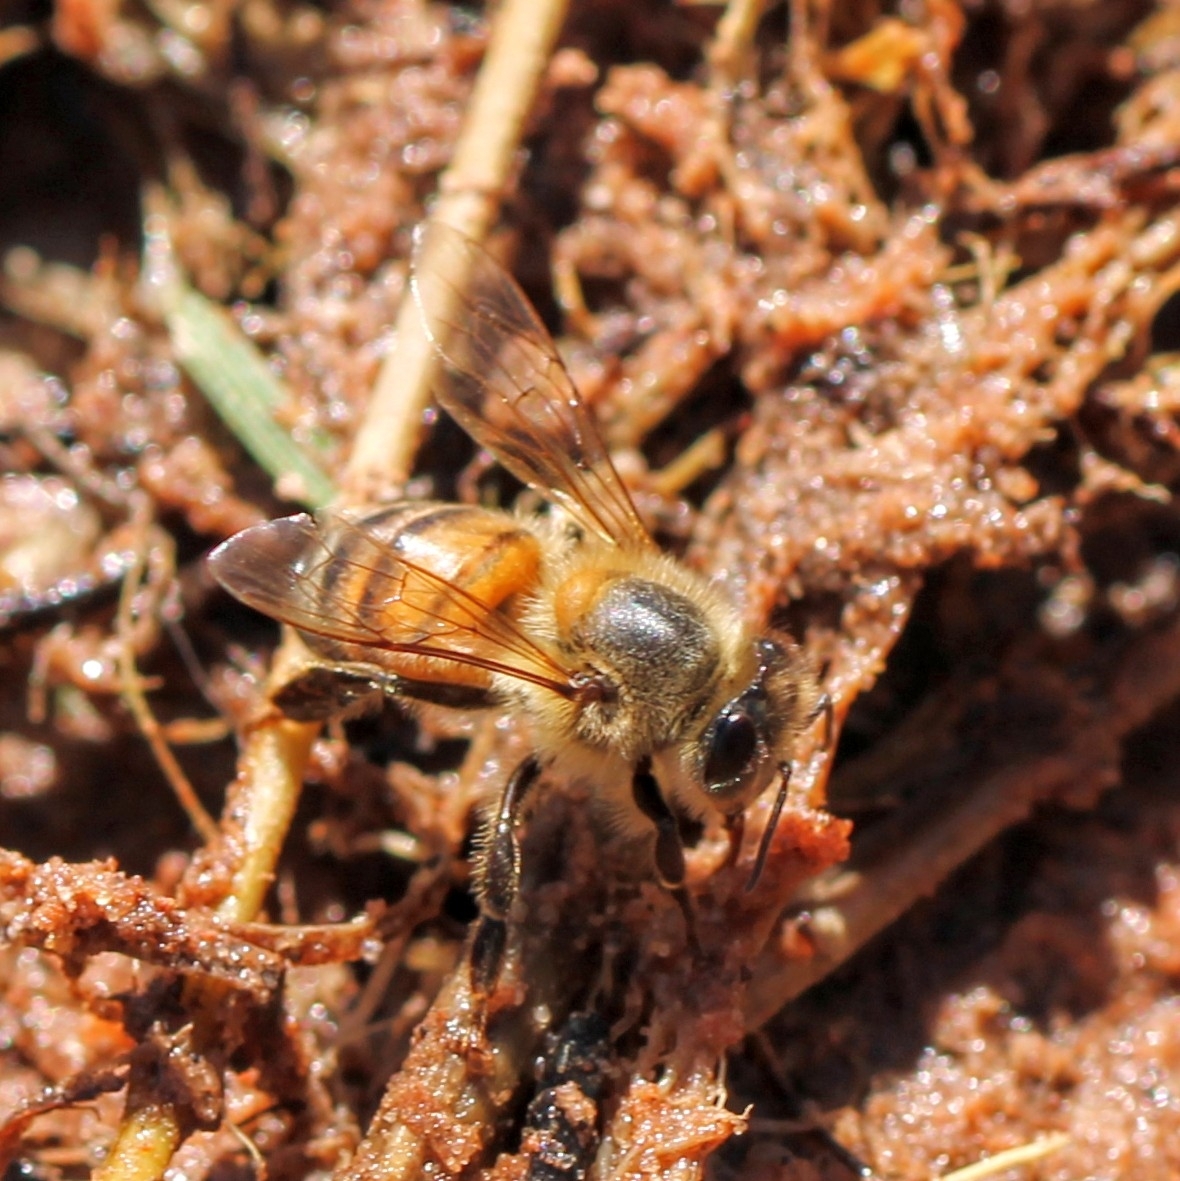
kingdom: Animalia
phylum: Arthropoda
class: Insecta
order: Hymenoptera
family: Apidae
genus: Apis
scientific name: Apis mellifera
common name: Honey bee
